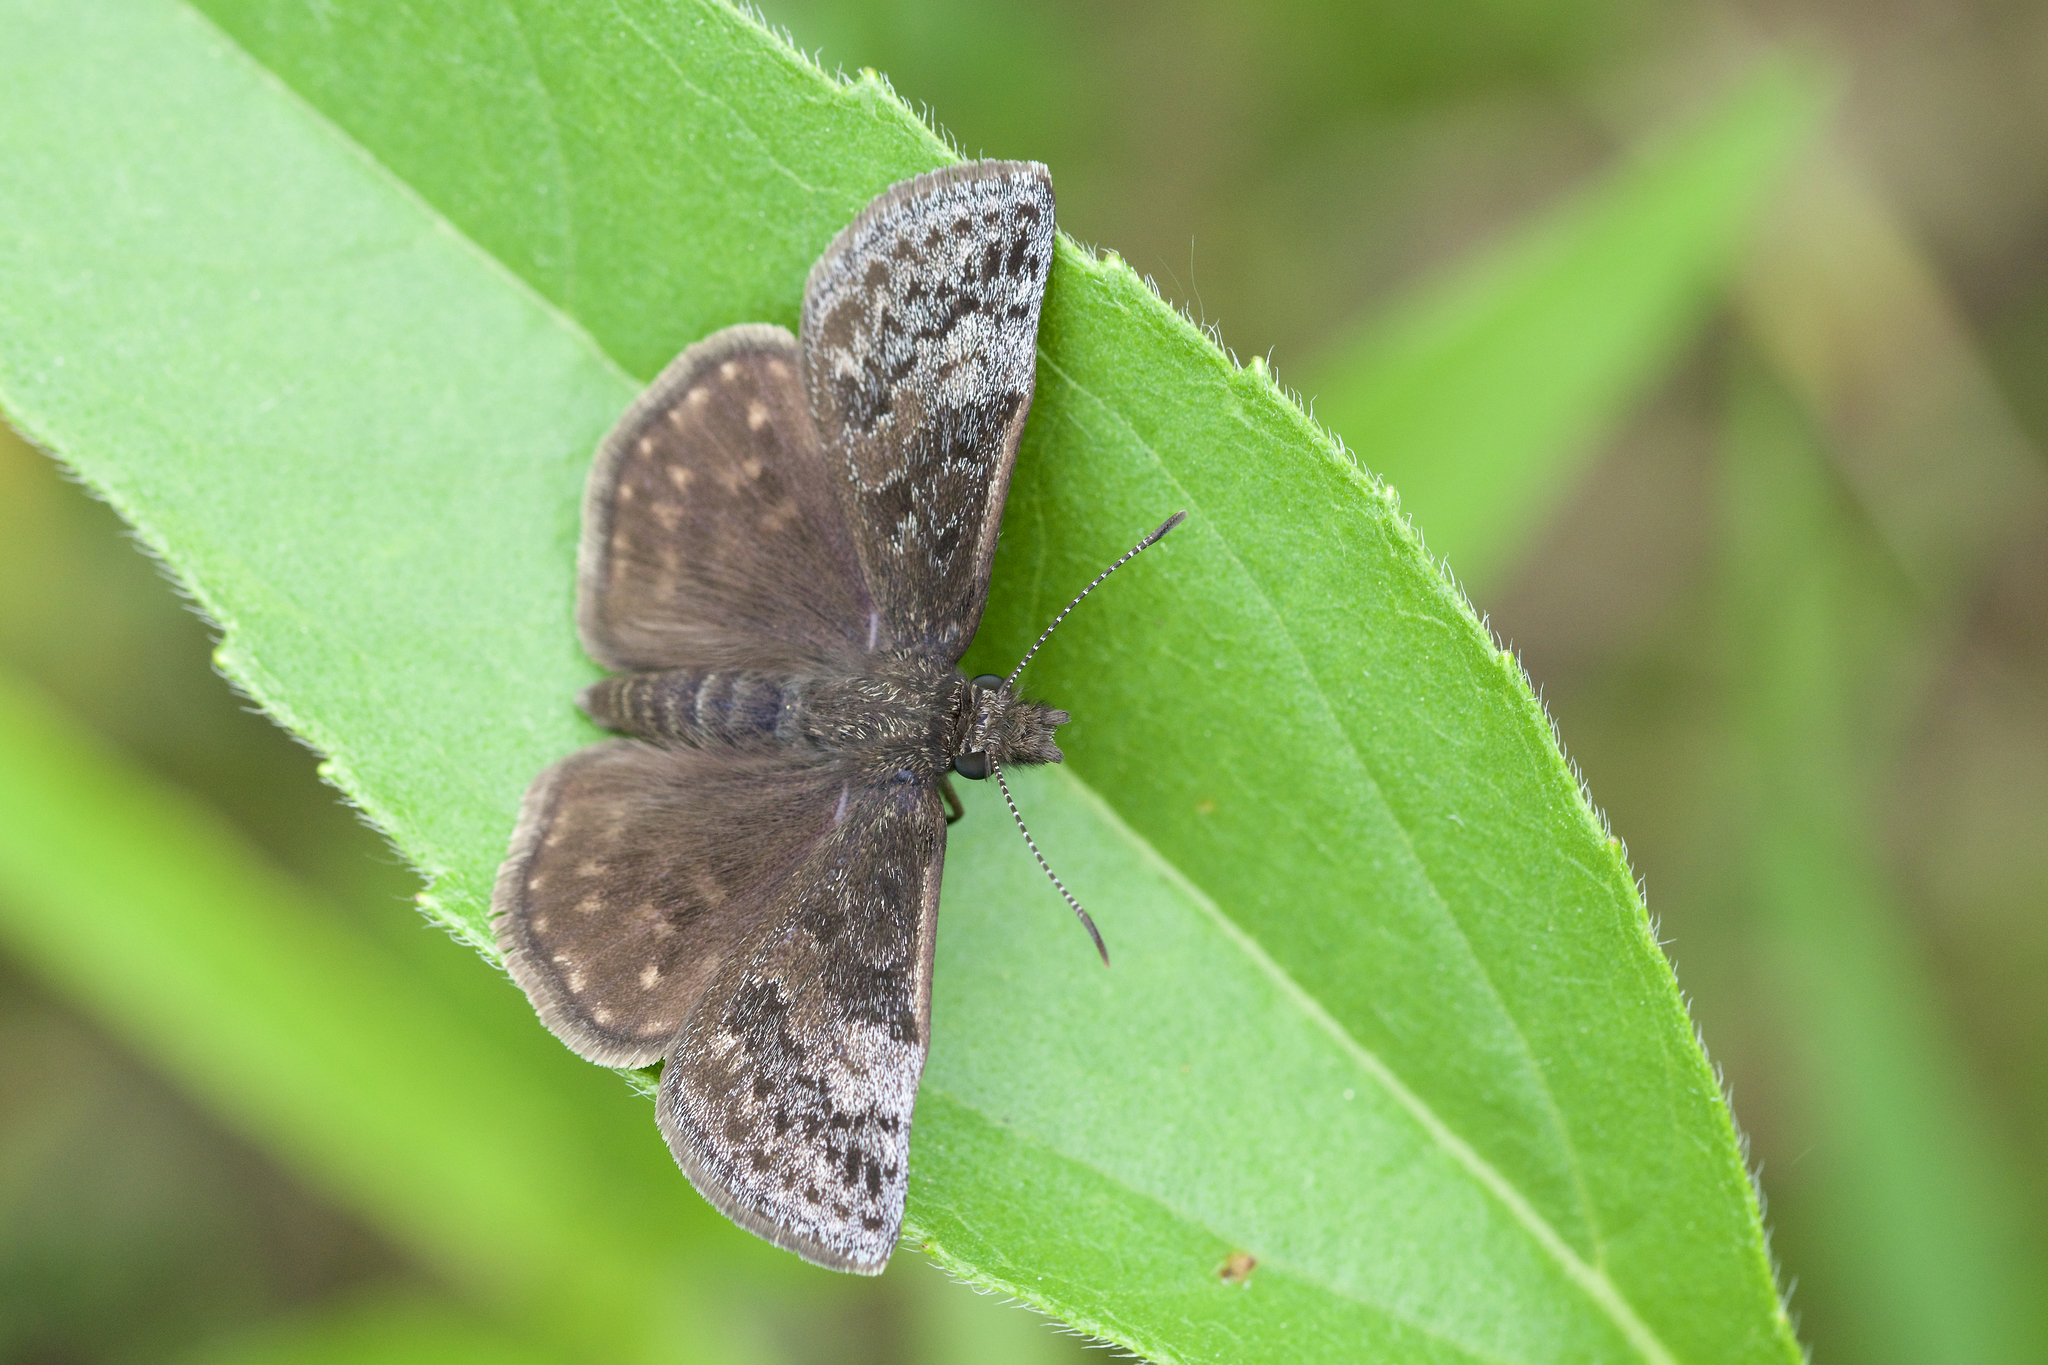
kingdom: Animalia
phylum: Arthropoda
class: Insecta
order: Lepidoptera
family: Hesperiidae
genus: Erynnis
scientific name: Erynnis icelus
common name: Dreamy duskywing
